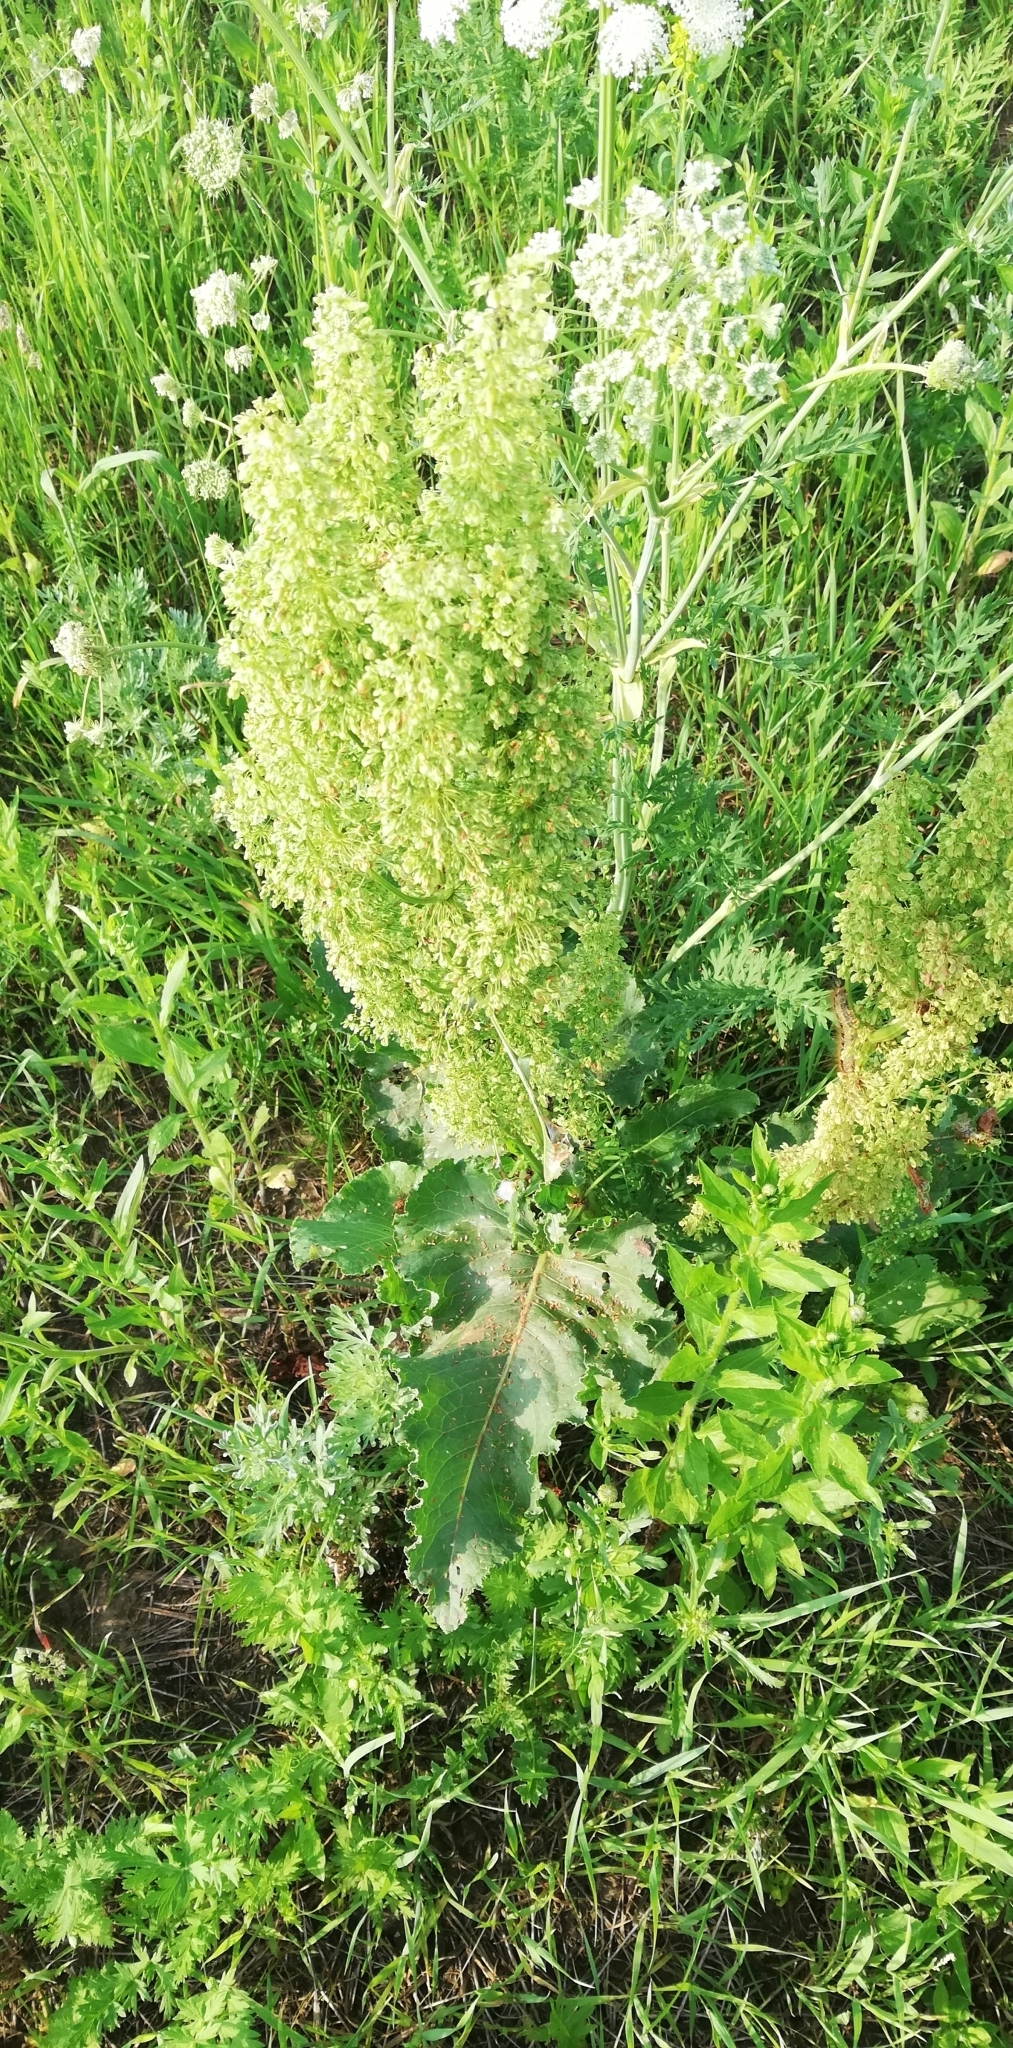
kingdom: Plantae
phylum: Tracheophyta
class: Magnoliopsida
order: Caryophyllales
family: Polygonaceae
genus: Rumex
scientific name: Rumex confertus
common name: Russian dock
